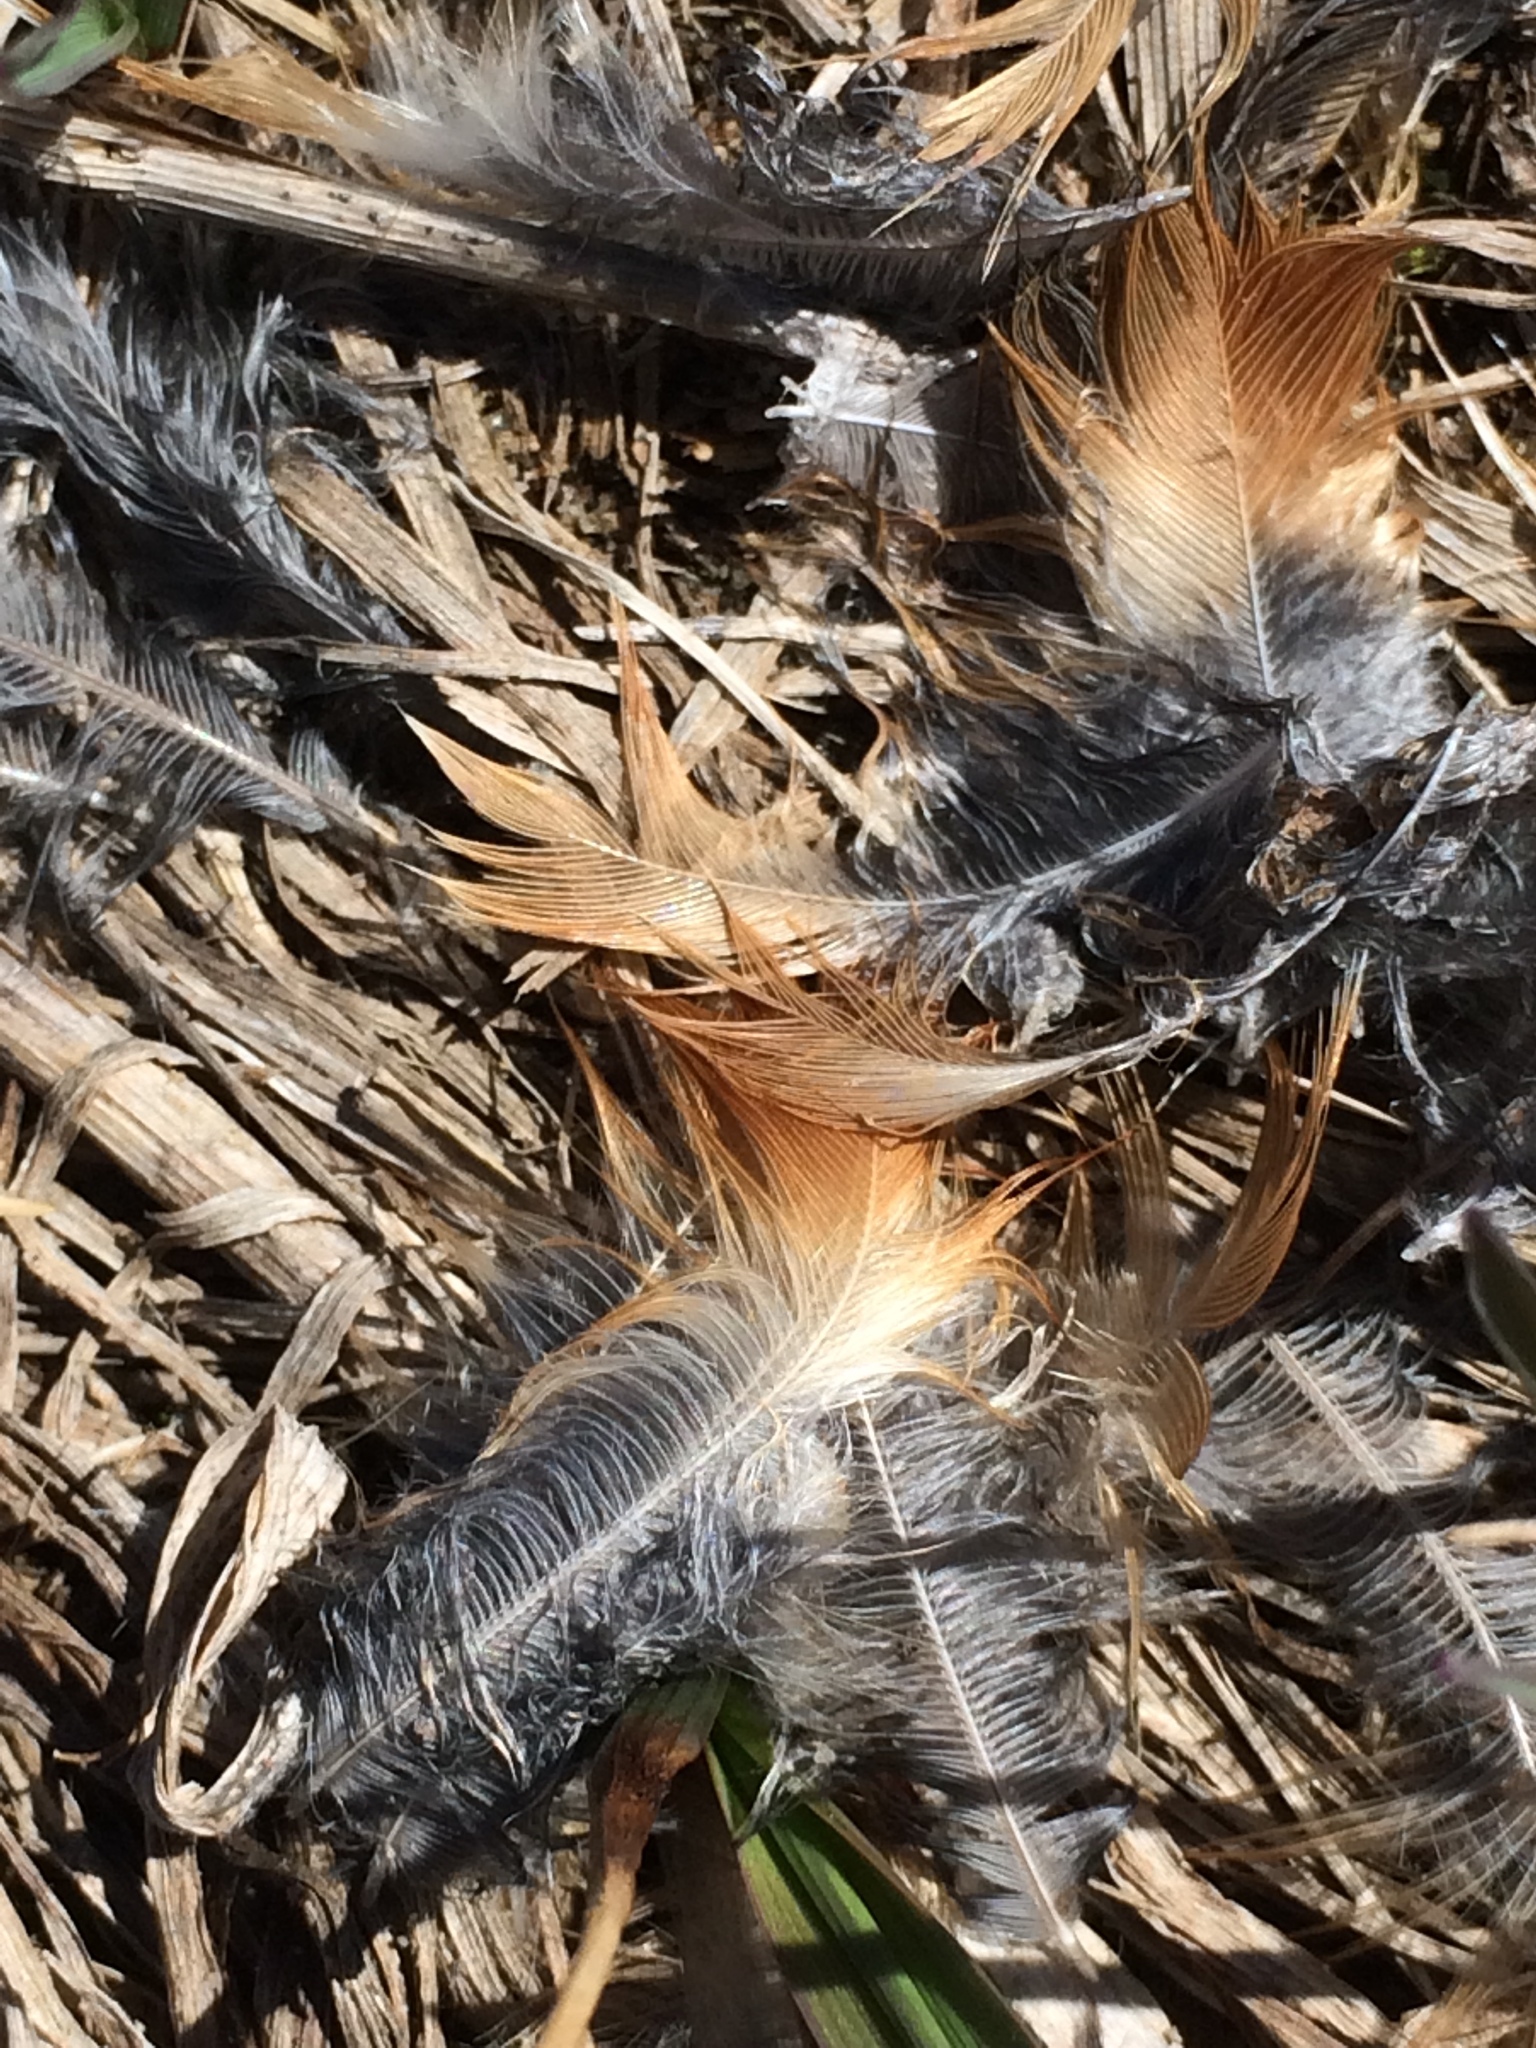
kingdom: Animalia
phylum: Chordata
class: Aves
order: Passeriformes
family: Turdidae
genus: Turdus
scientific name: Turdus migratorius
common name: American robin
